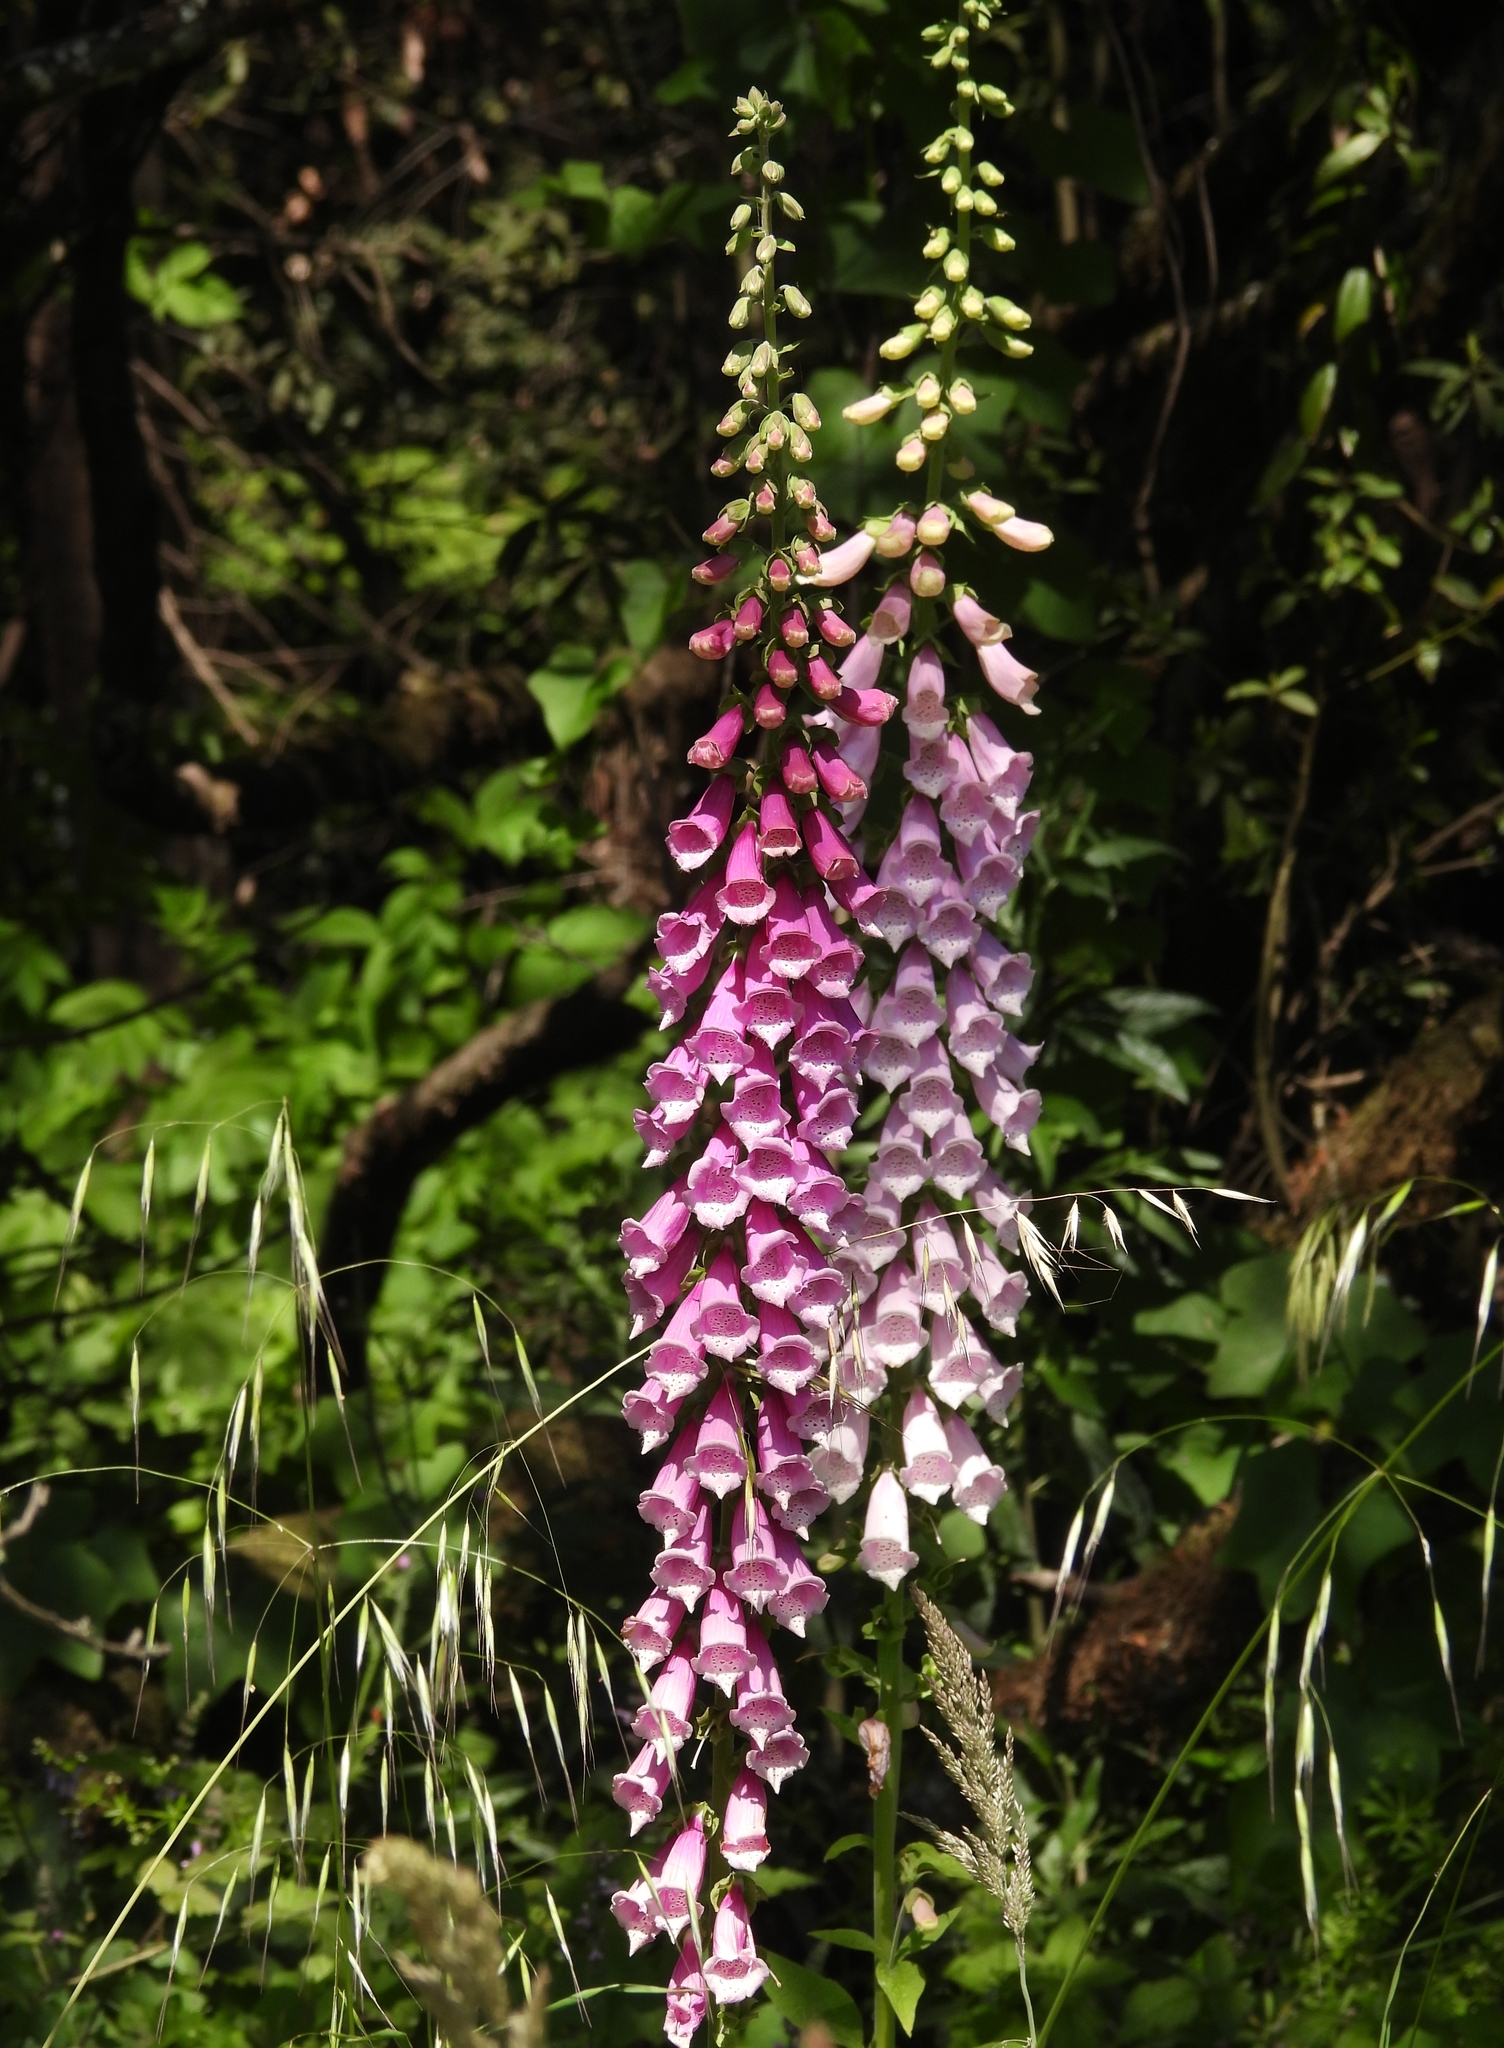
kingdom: Plantae
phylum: Tracheophyta
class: Magnoliopsida
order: Lamiales
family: Plantaginaceae
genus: Digitalis
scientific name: Digitalis purpurea
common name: Foxglove
